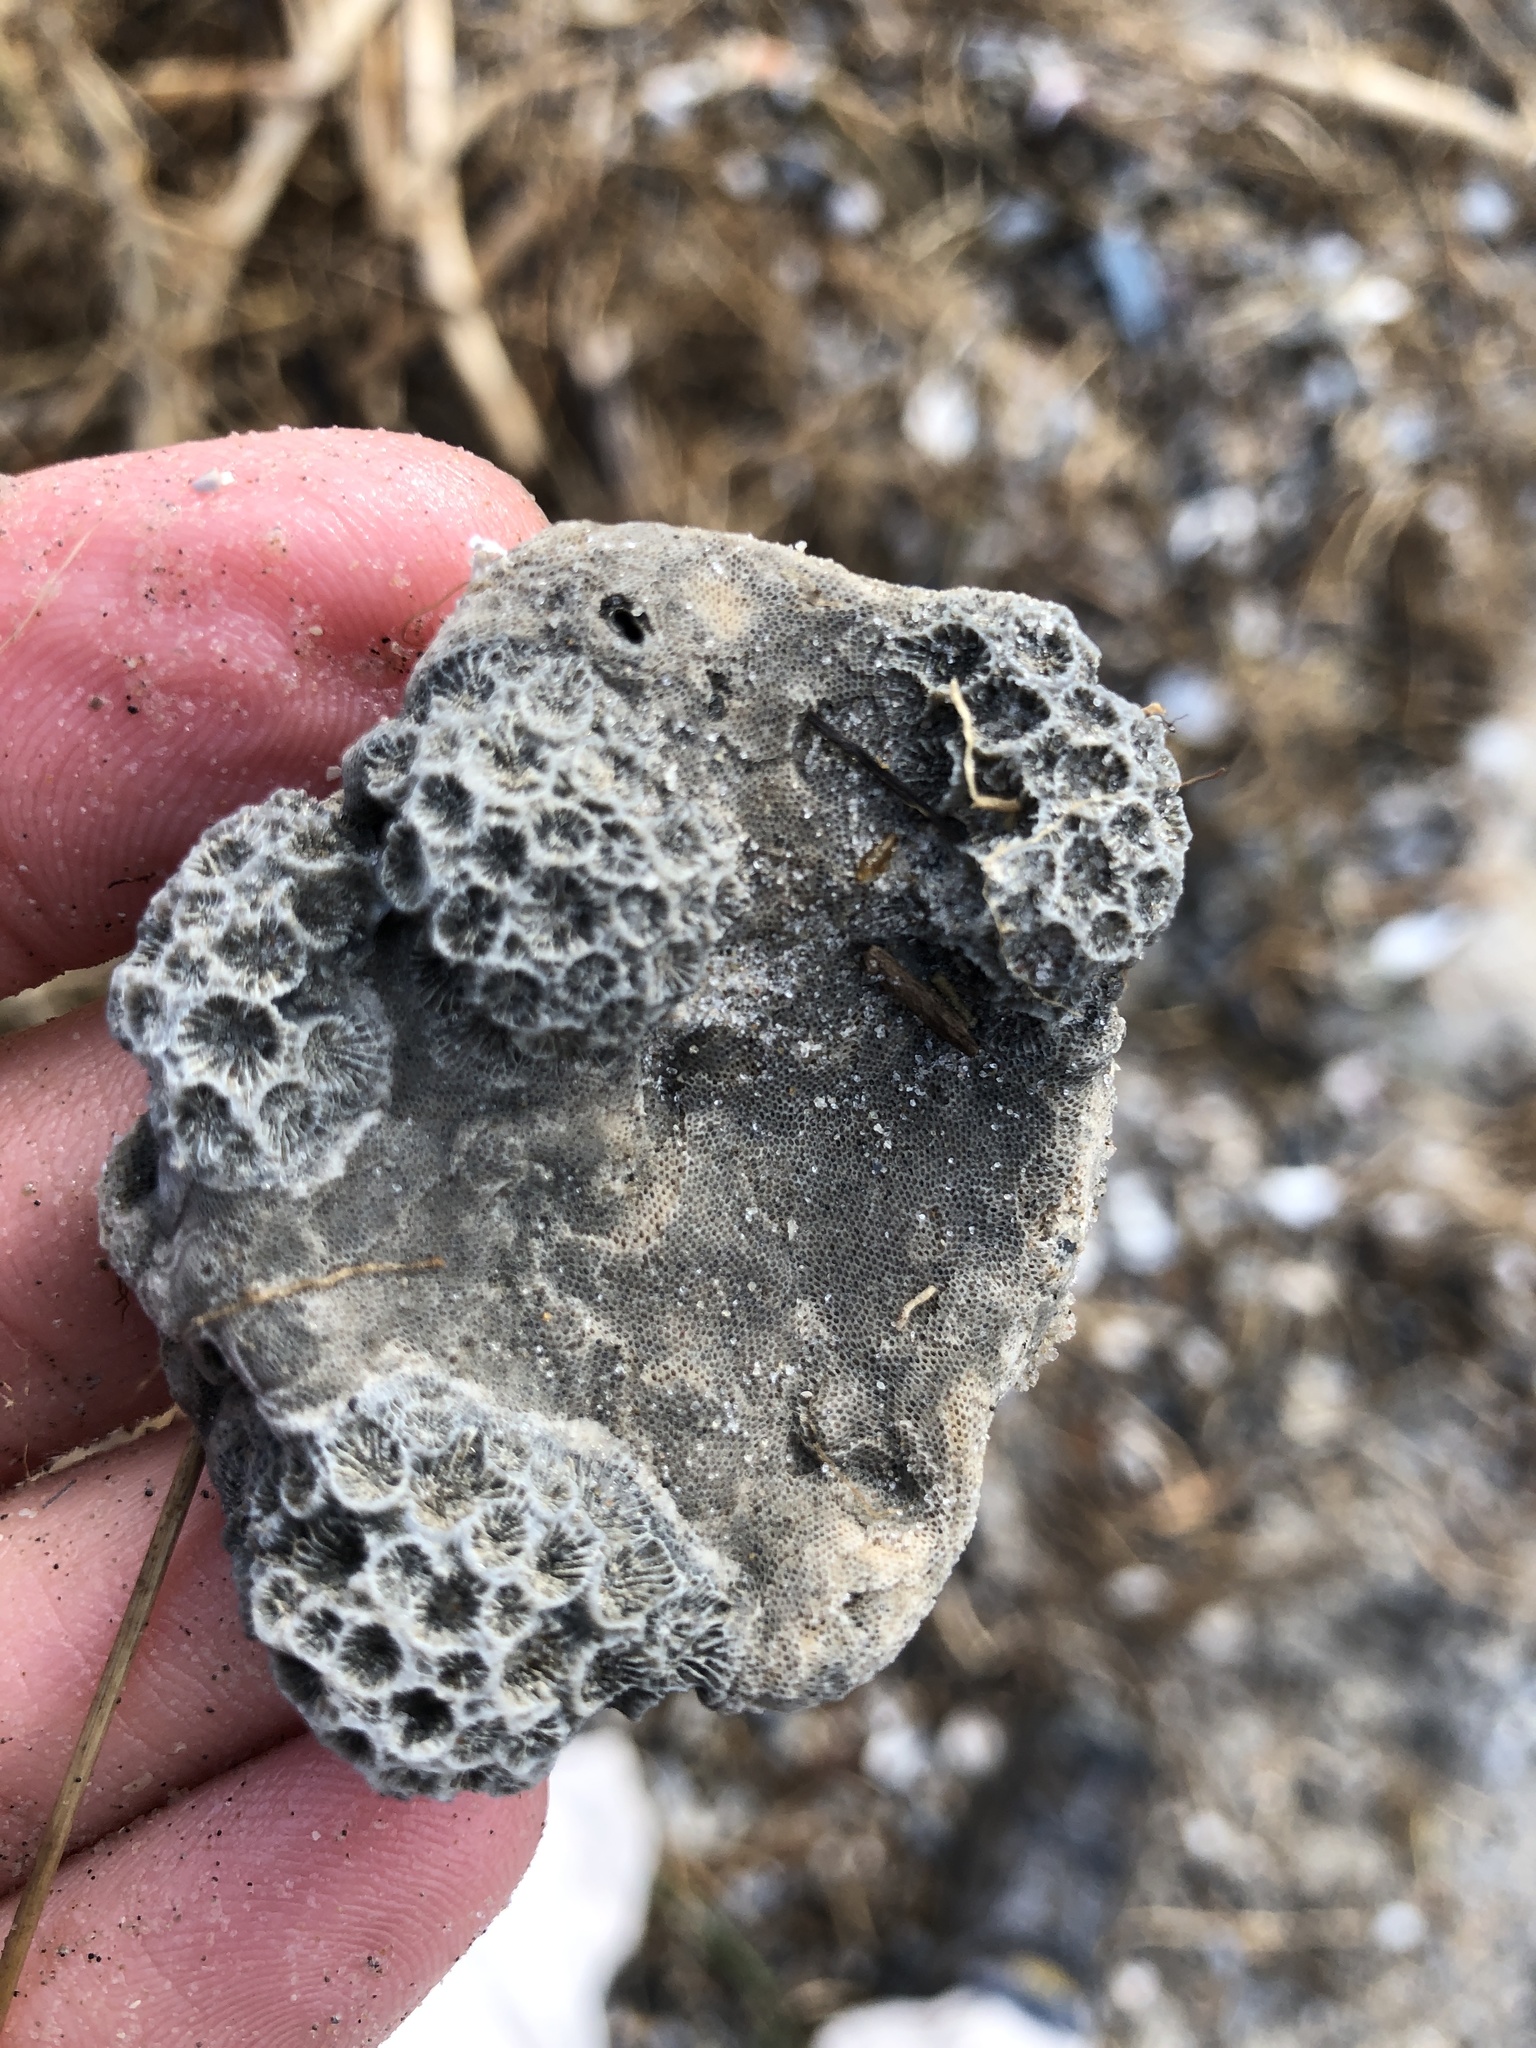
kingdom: Animalia
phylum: Cnidaria
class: Anthozoa
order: Scleractinia
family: Astrangiidae
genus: Astrangia
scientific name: Astrangia poculata
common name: Northern star coral
